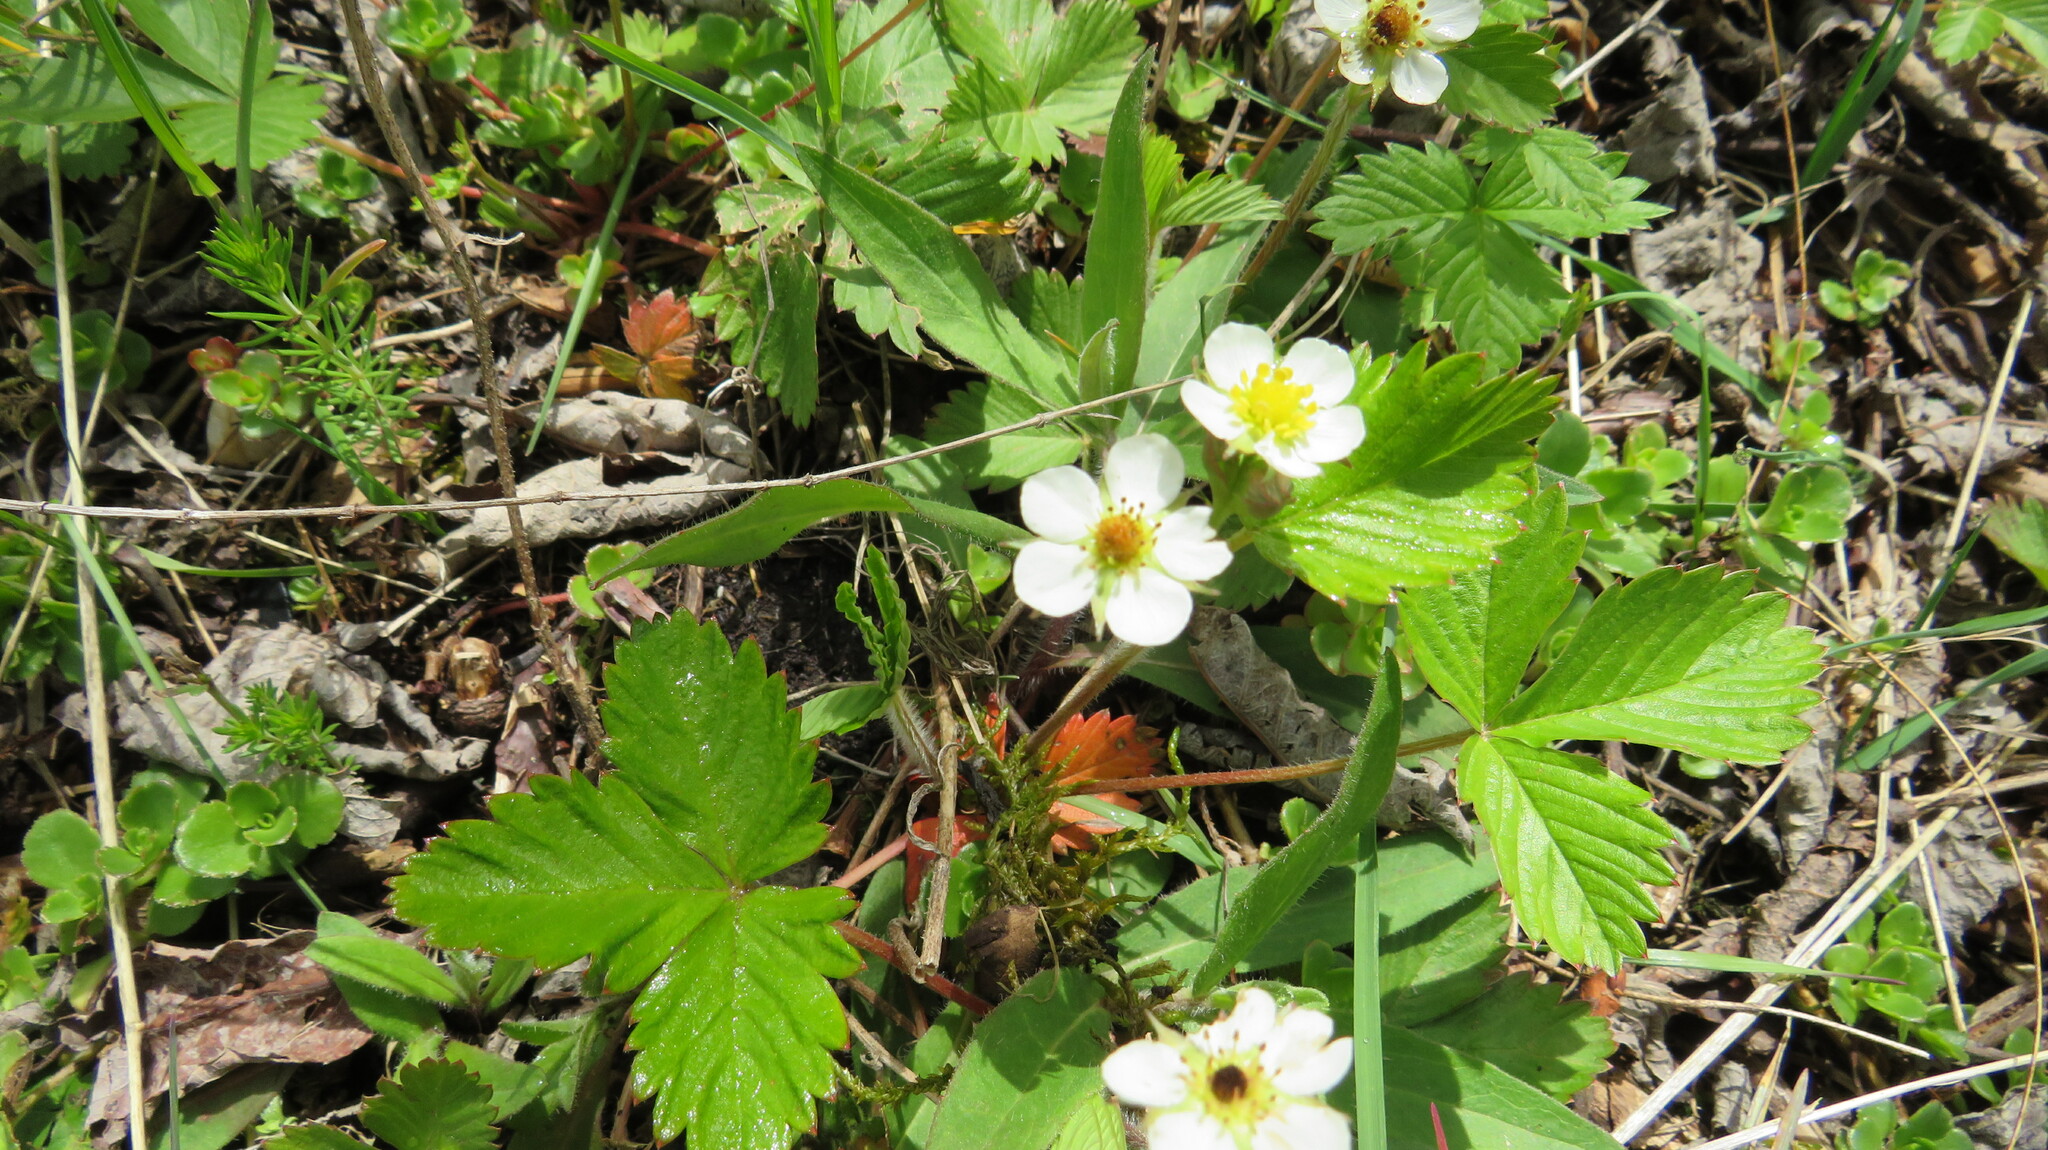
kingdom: Plantae
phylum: Tracheophyta
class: Magnoliopsida
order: Rosales
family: Rosaceae
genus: Fragaria
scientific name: Fragaria vesca
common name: Wild strawberry
